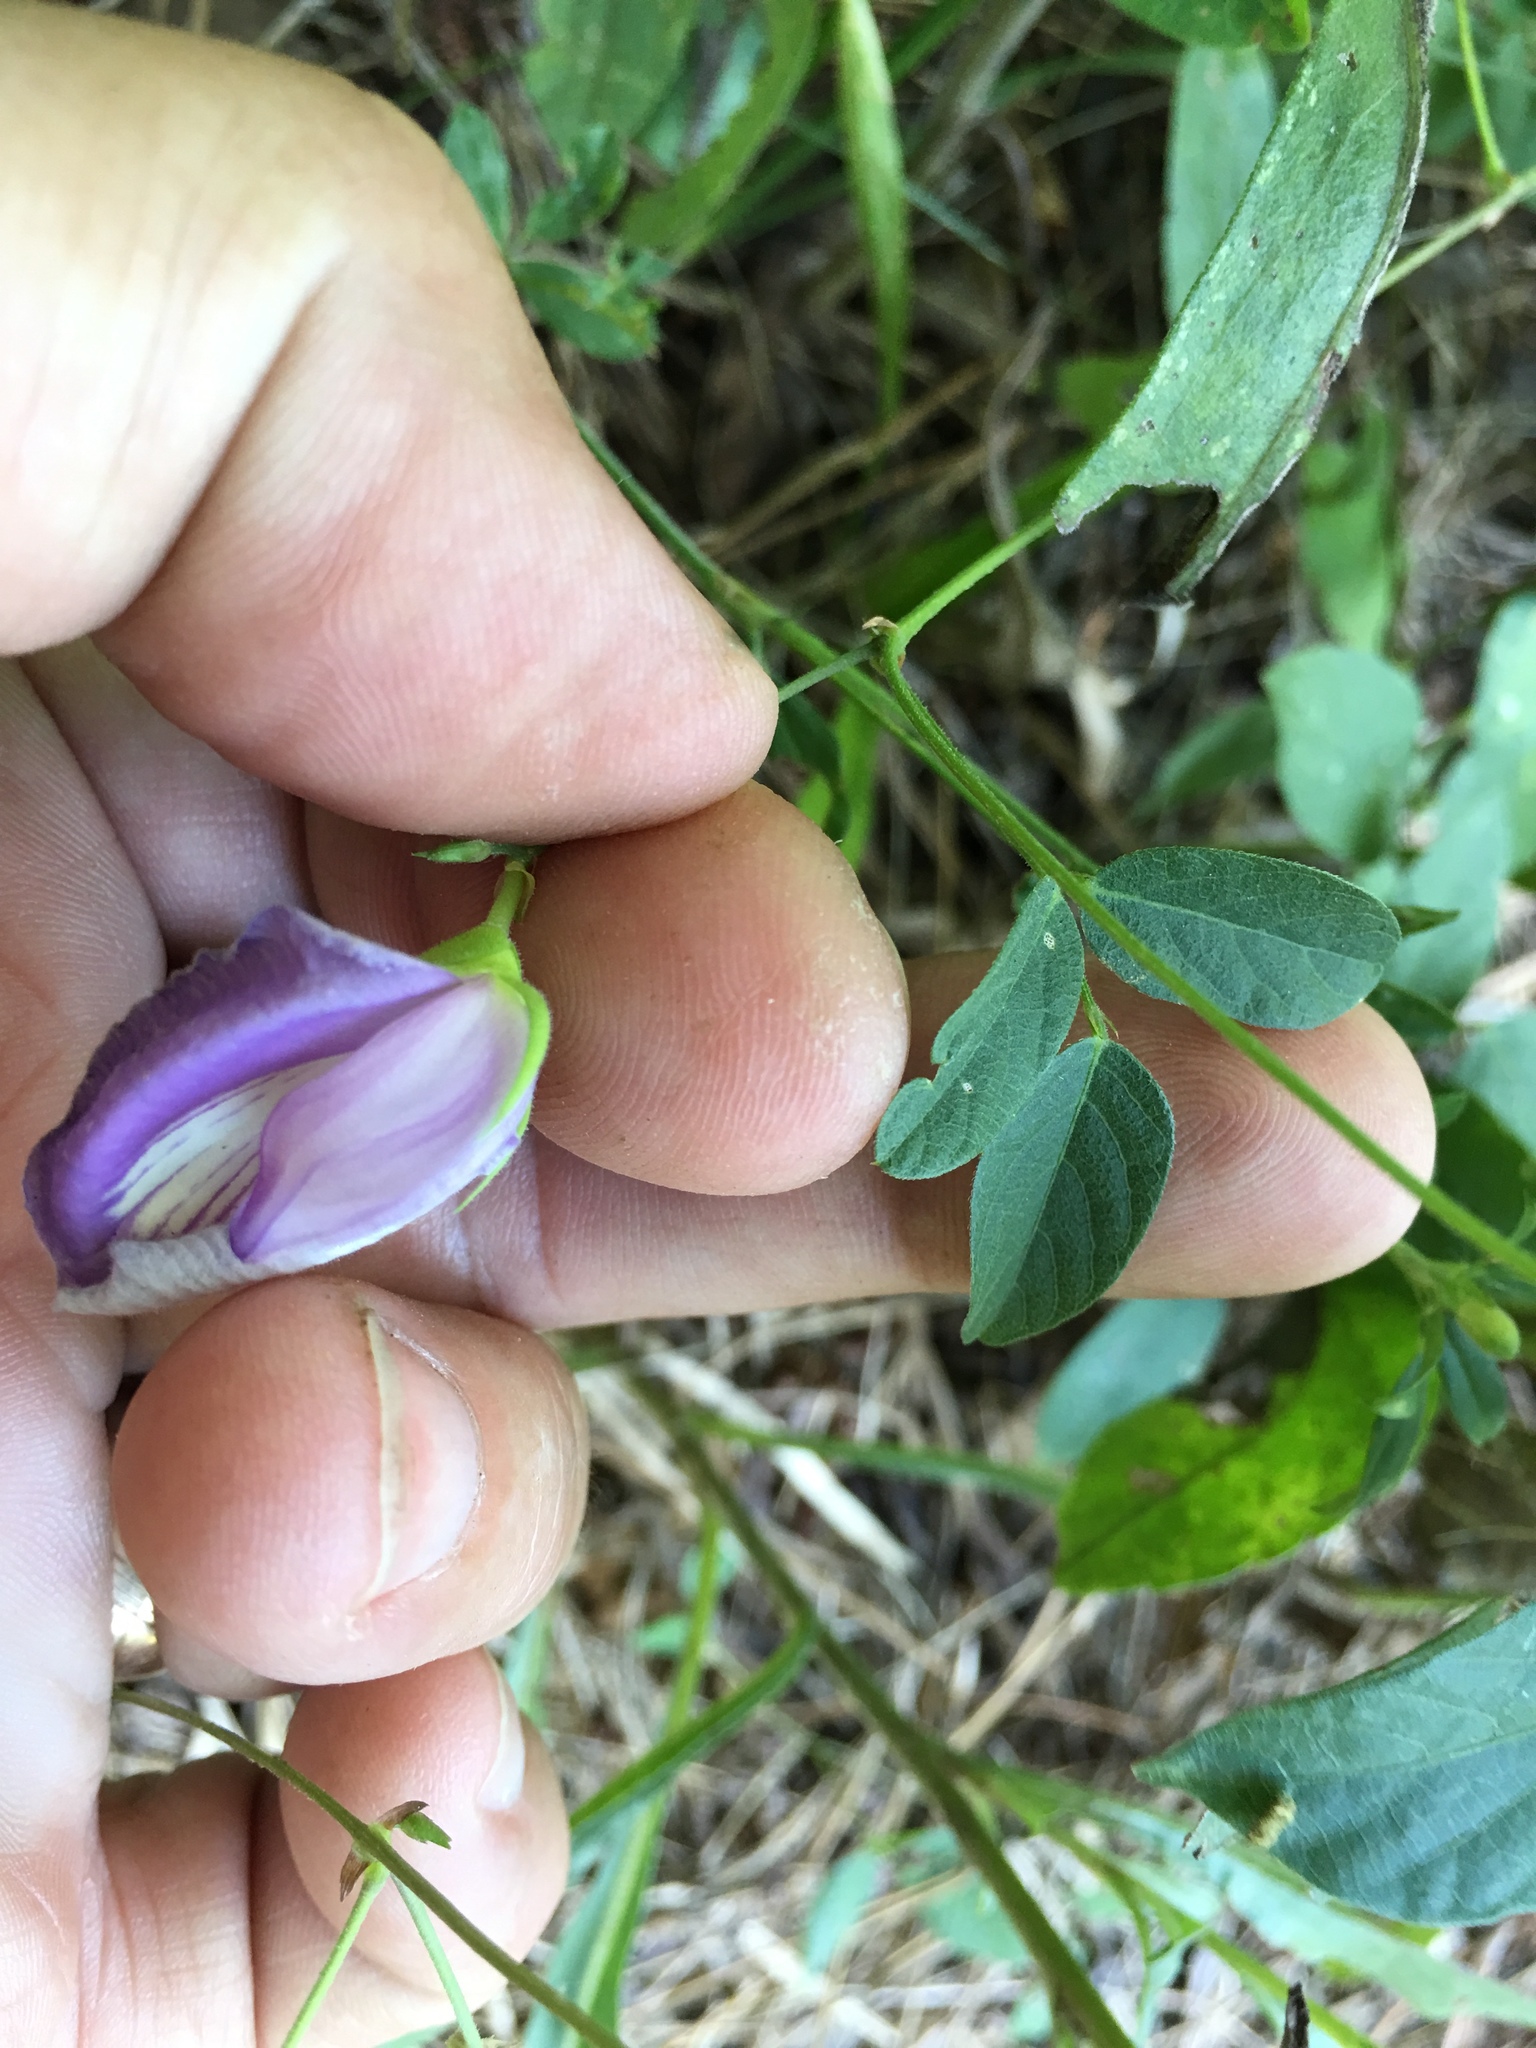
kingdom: Plantae
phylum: Tracheophyta
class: Magnoliopsida
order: Fabales
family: Fabaceae
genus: Centrosema
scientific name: Centrosema virginianum
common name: Butterfly-pea
